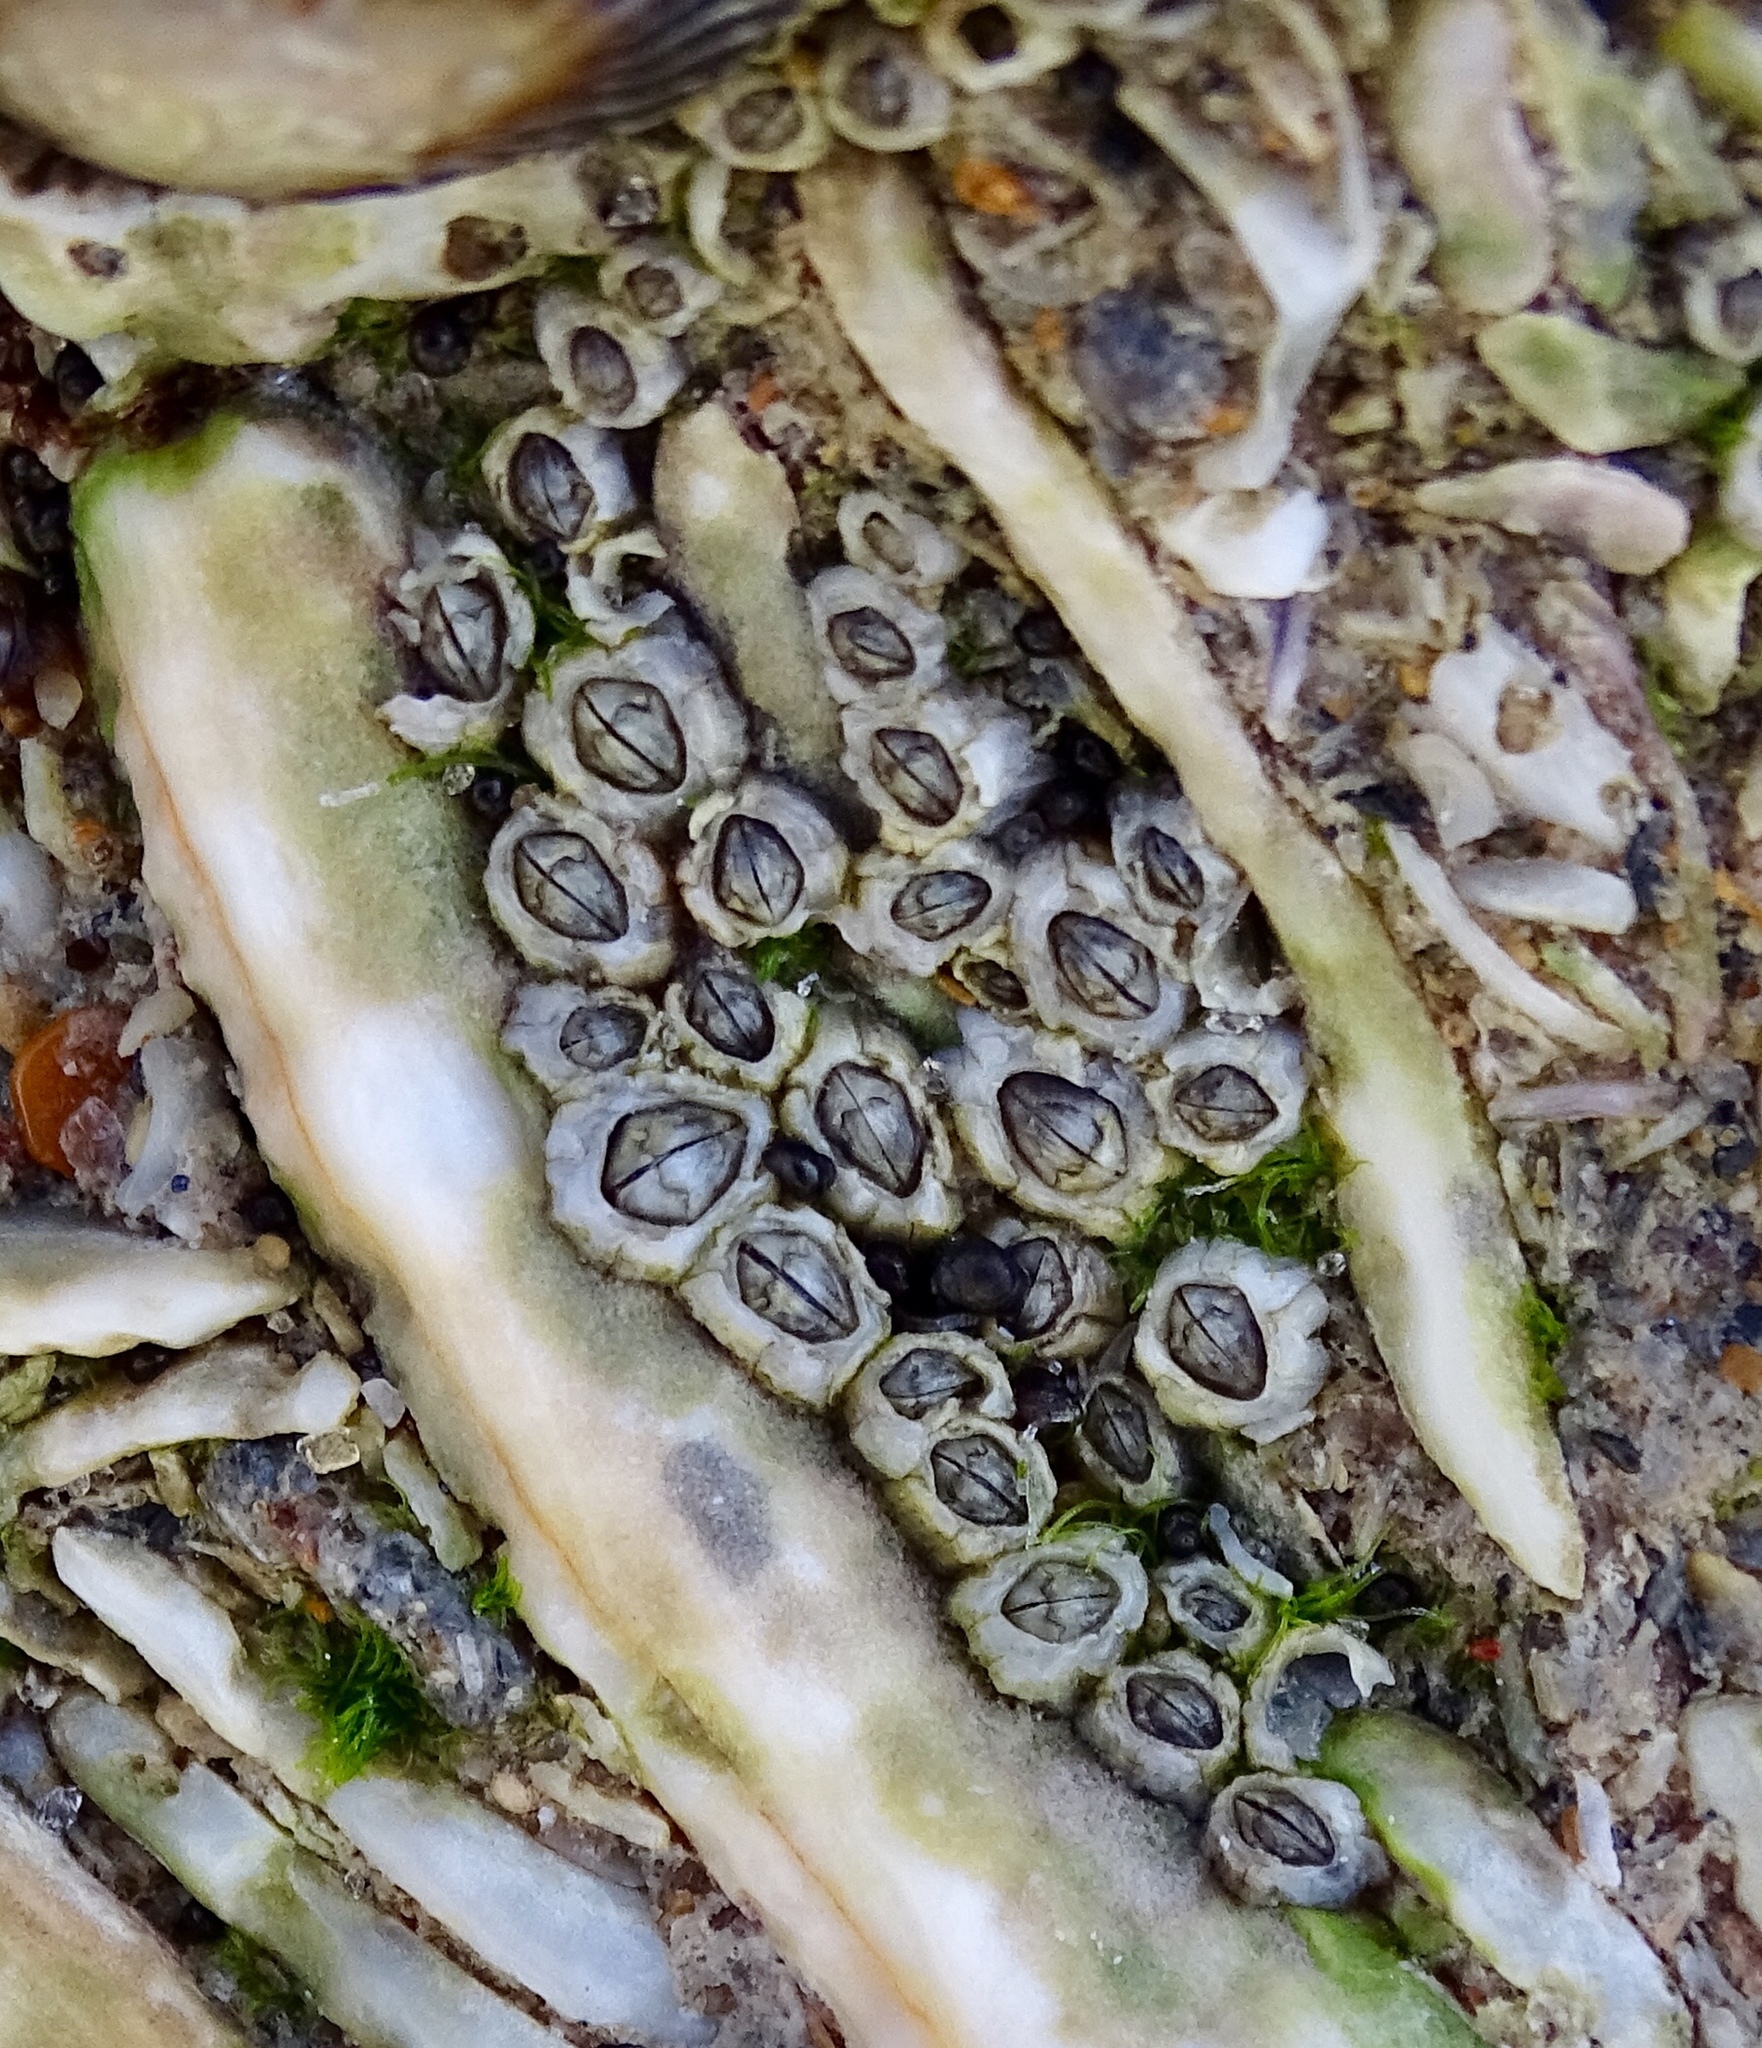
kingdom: Animalia
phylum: Arthropoda
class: Maxillopoda
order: Sessilia
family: Chthamalidae
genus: Chthamalus
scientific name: Chthamalus fragilis
